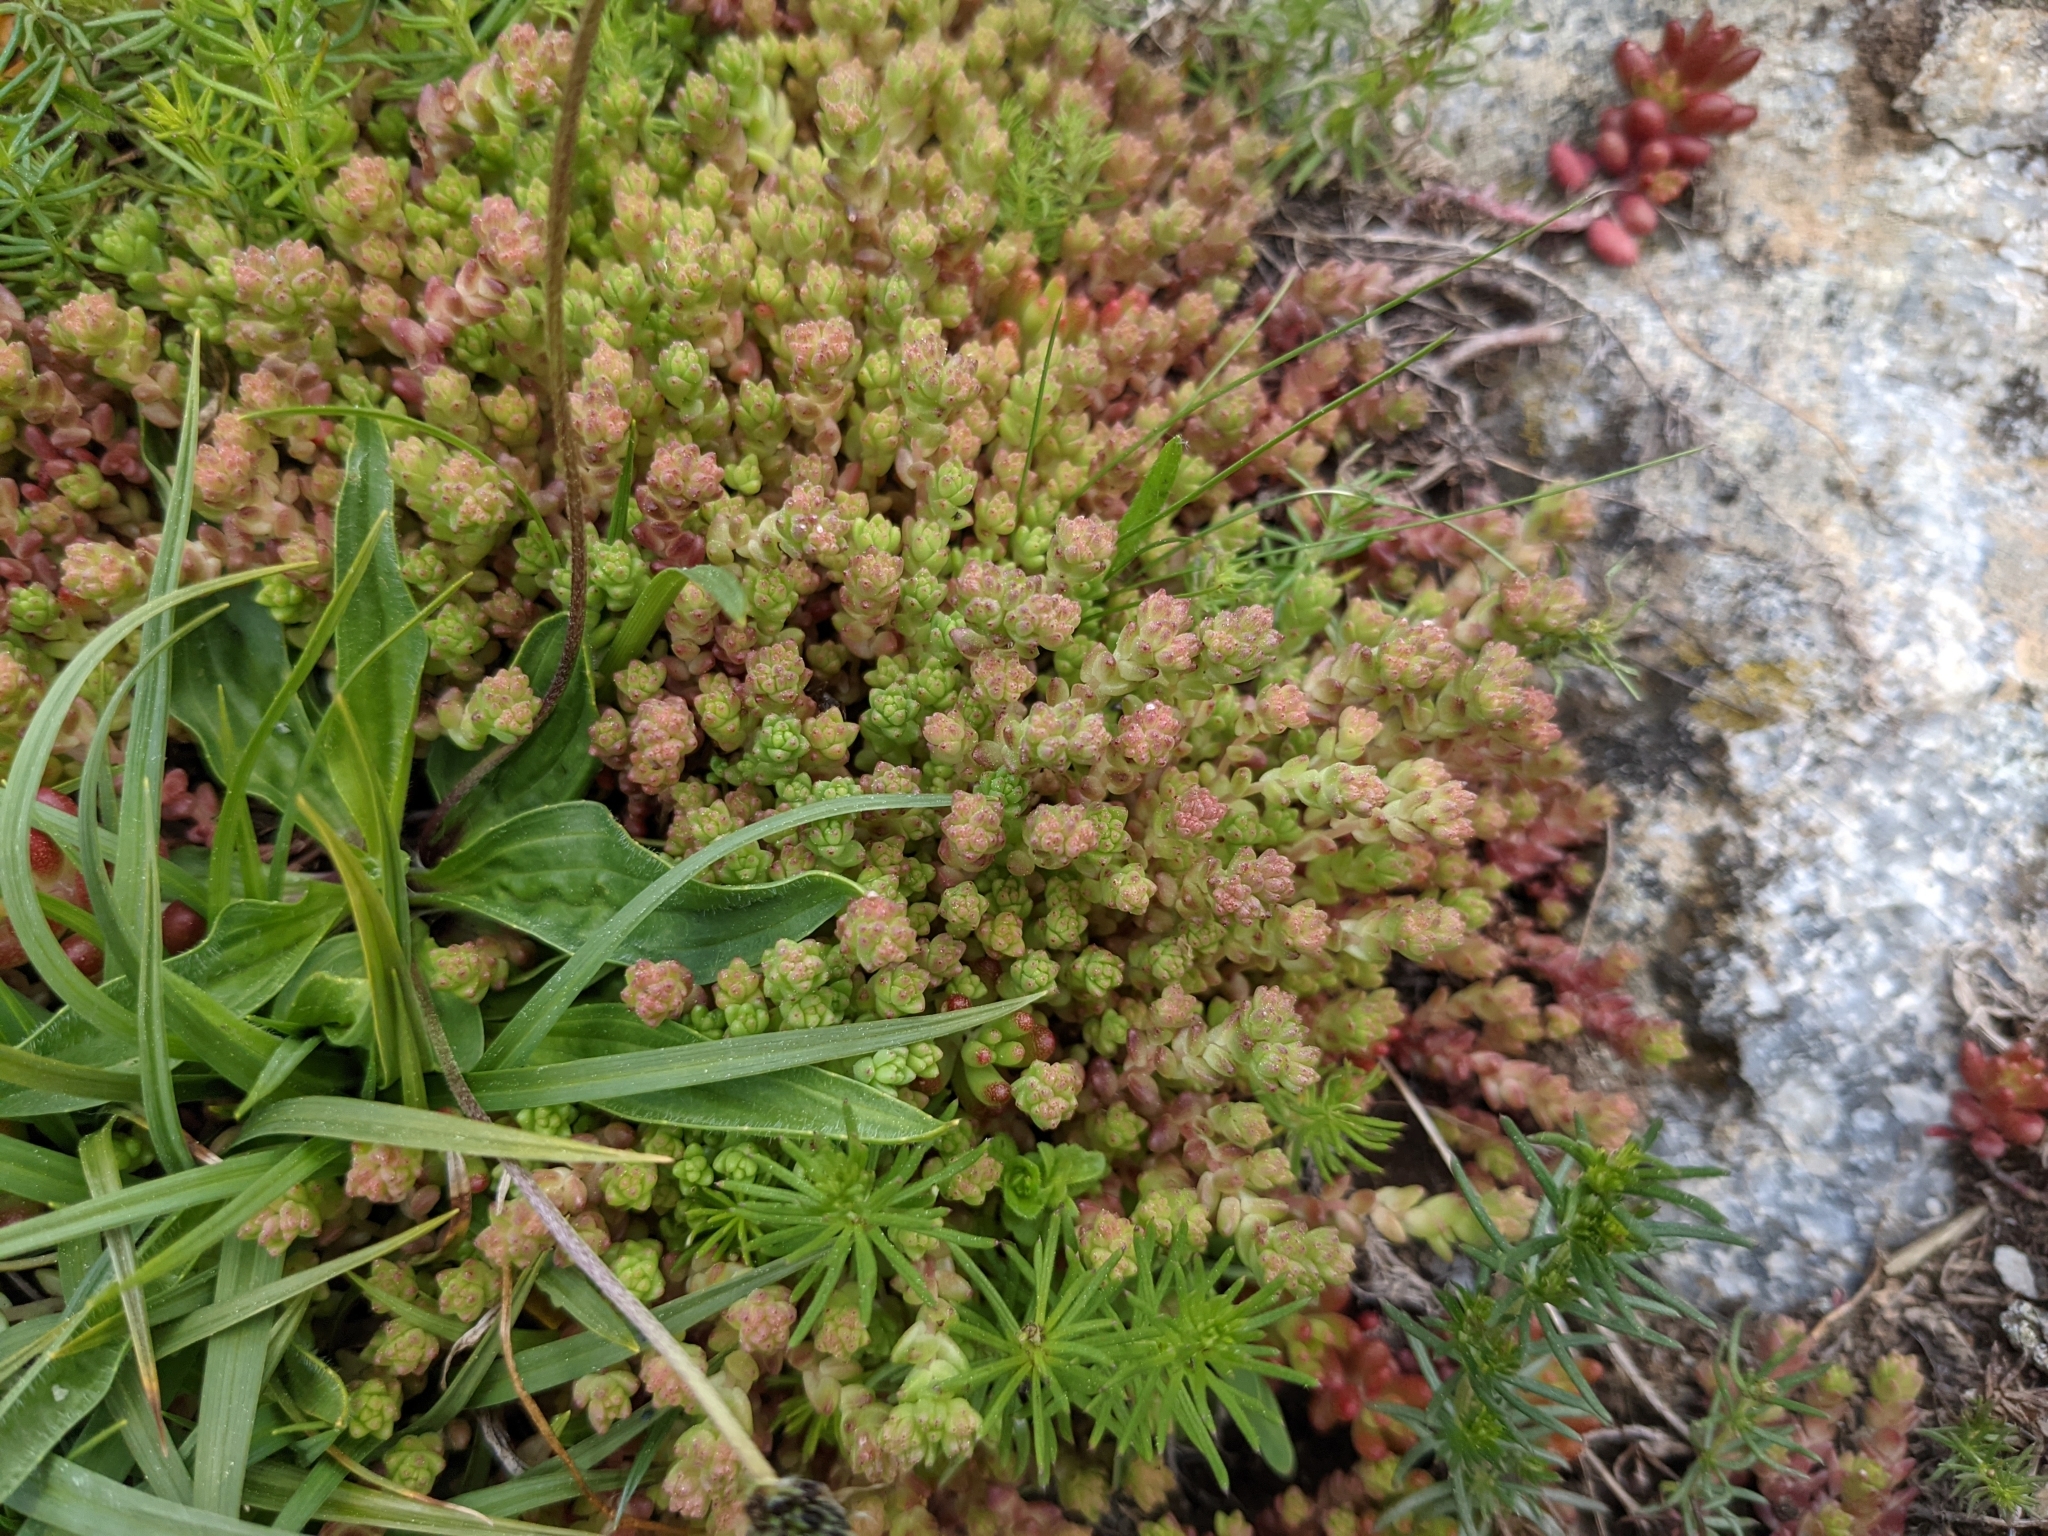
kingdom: Plantae
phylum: Tracheophyta
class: Magnoliopsida
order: Saxifragales
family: Crassulaceae
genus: Sedum
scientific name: Sedum anglicum
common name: English stonecrop
